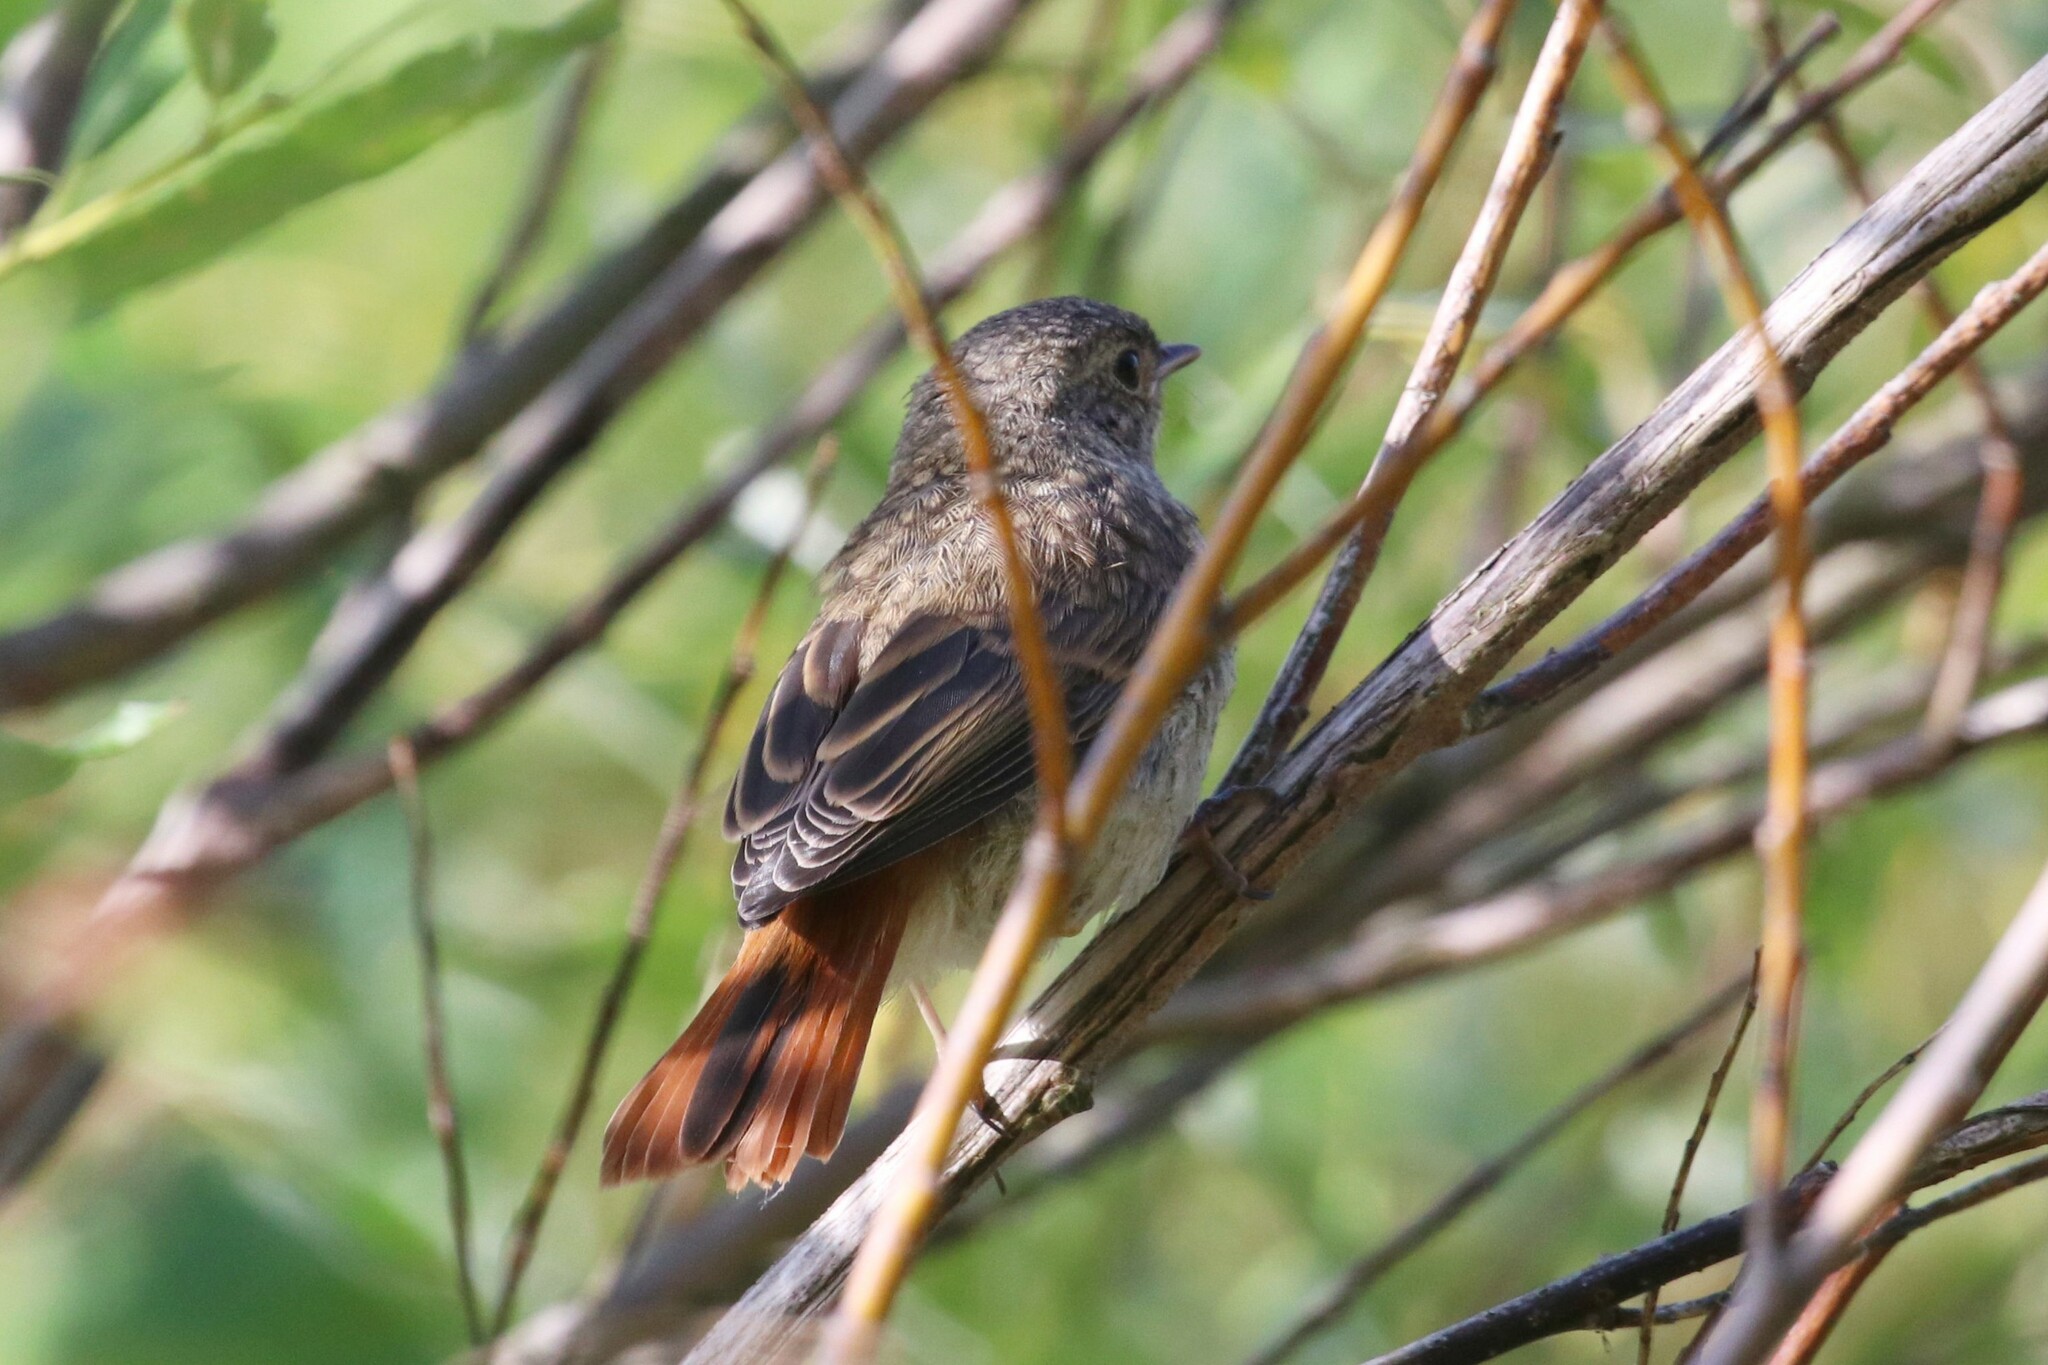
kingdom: Animalia
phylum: Chordata
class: Aves
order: Passeriformes
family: Muscicapidae
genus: Phoenicurus
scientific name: Phoenicurus phoenicurus
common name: Common redstart
